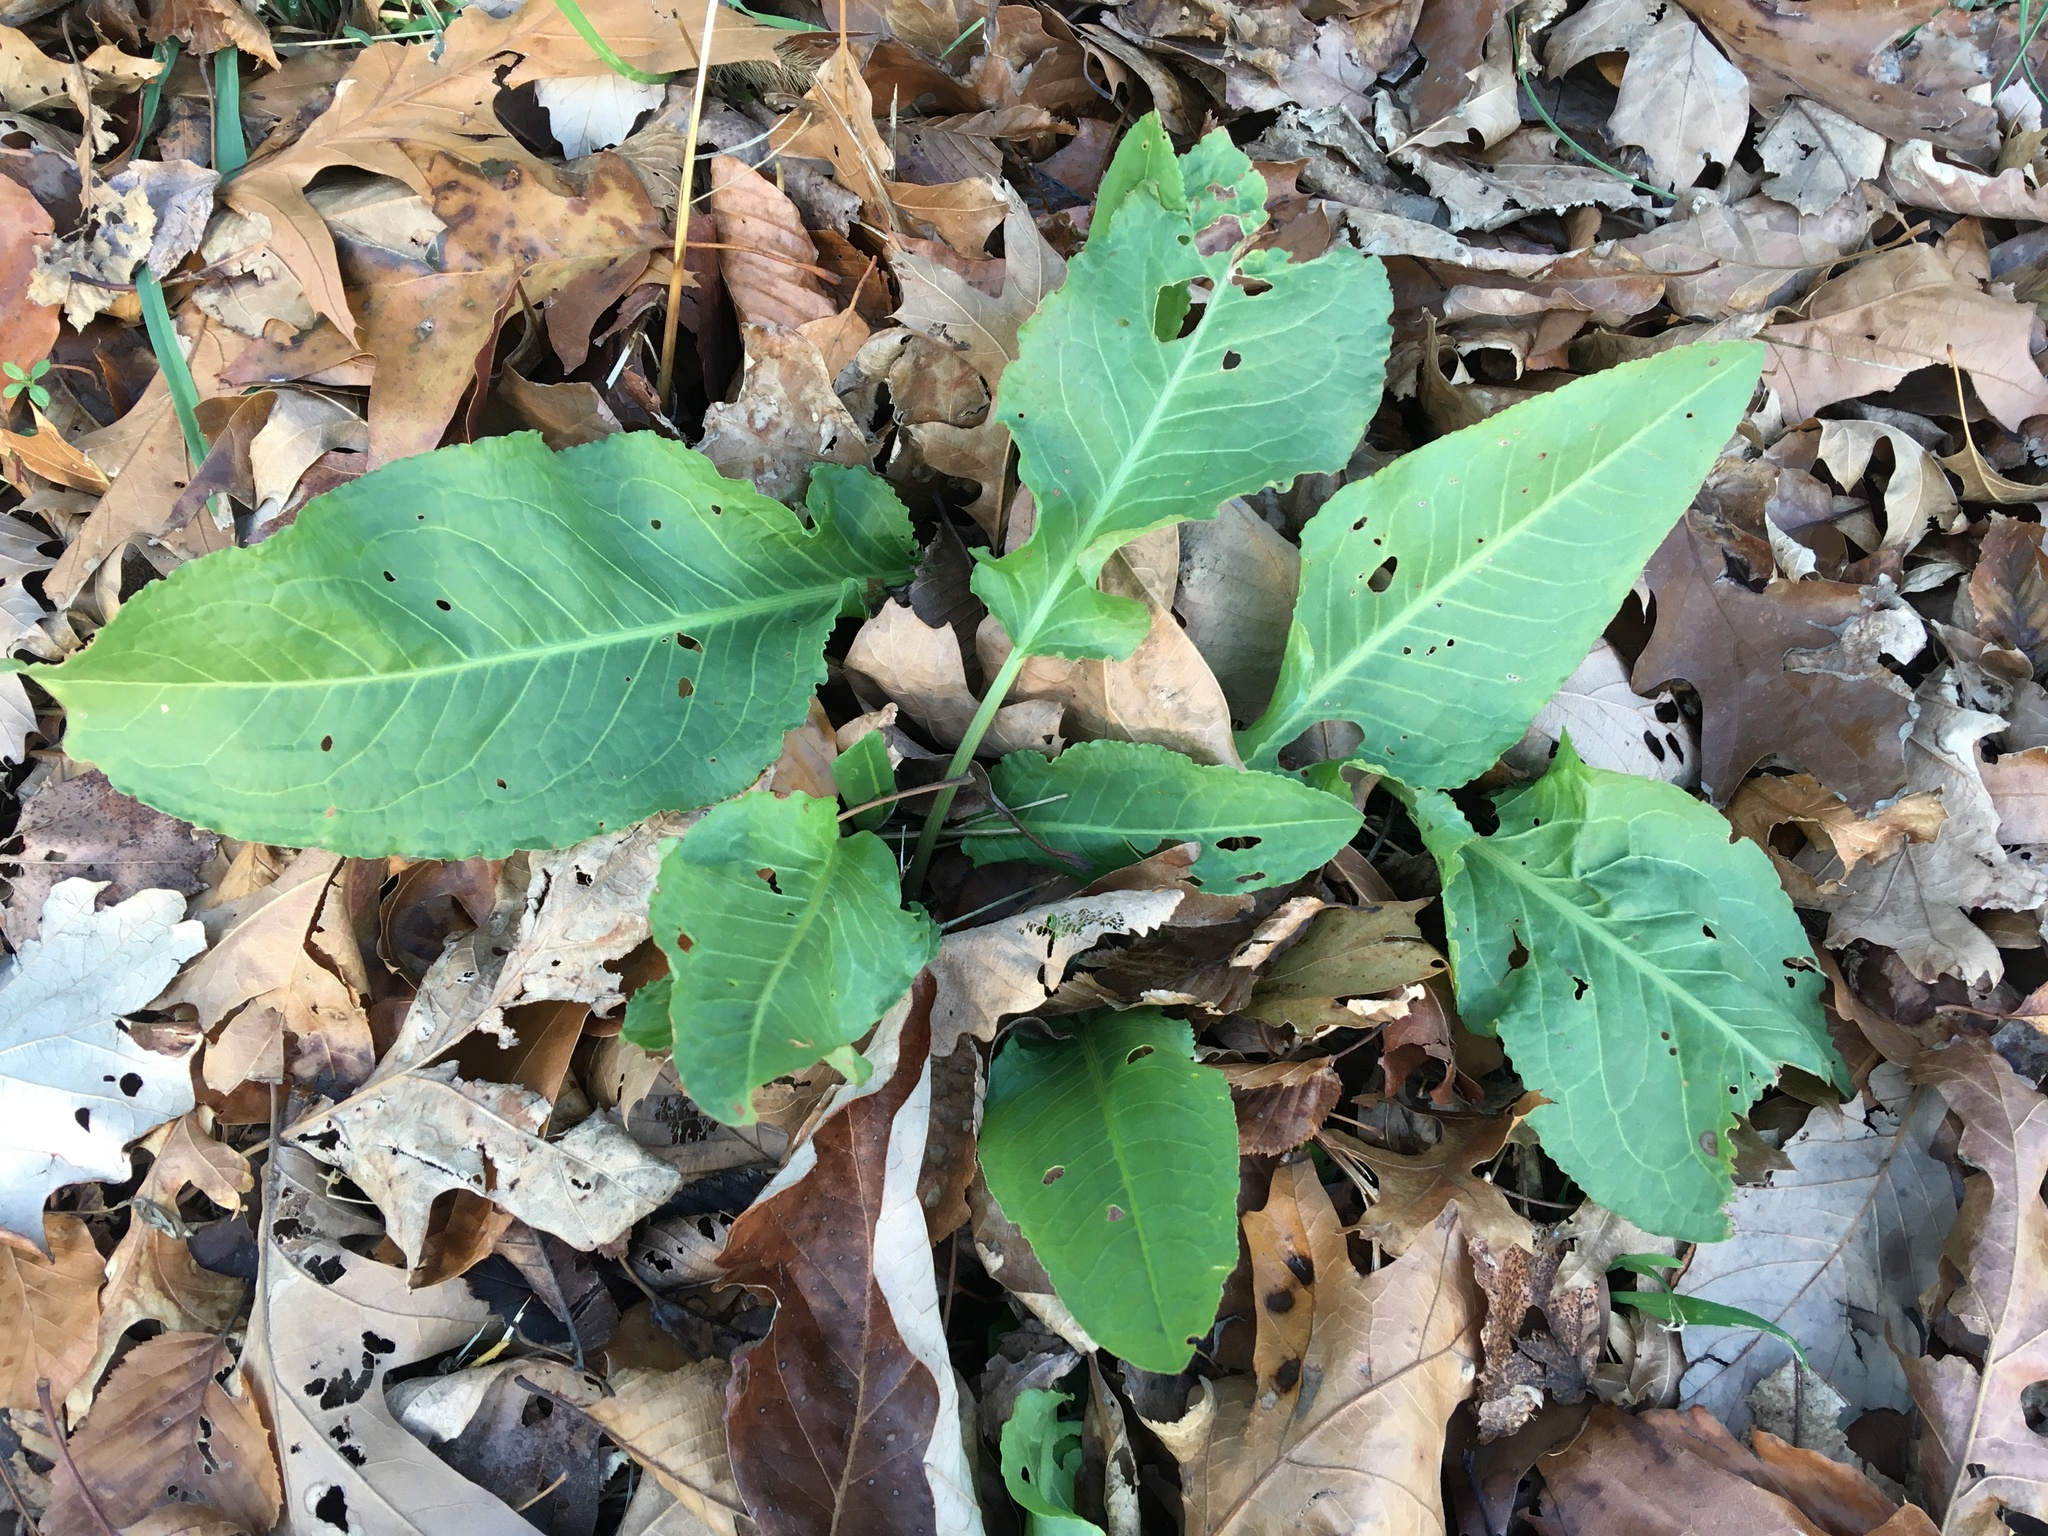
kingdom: Plantae
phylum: Tracheophyta
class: Magnoliopsida
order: Caryophyllales
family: Polygonaceae
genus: Rumex
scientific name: Rumex obtusifolius
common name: Bitter dock
